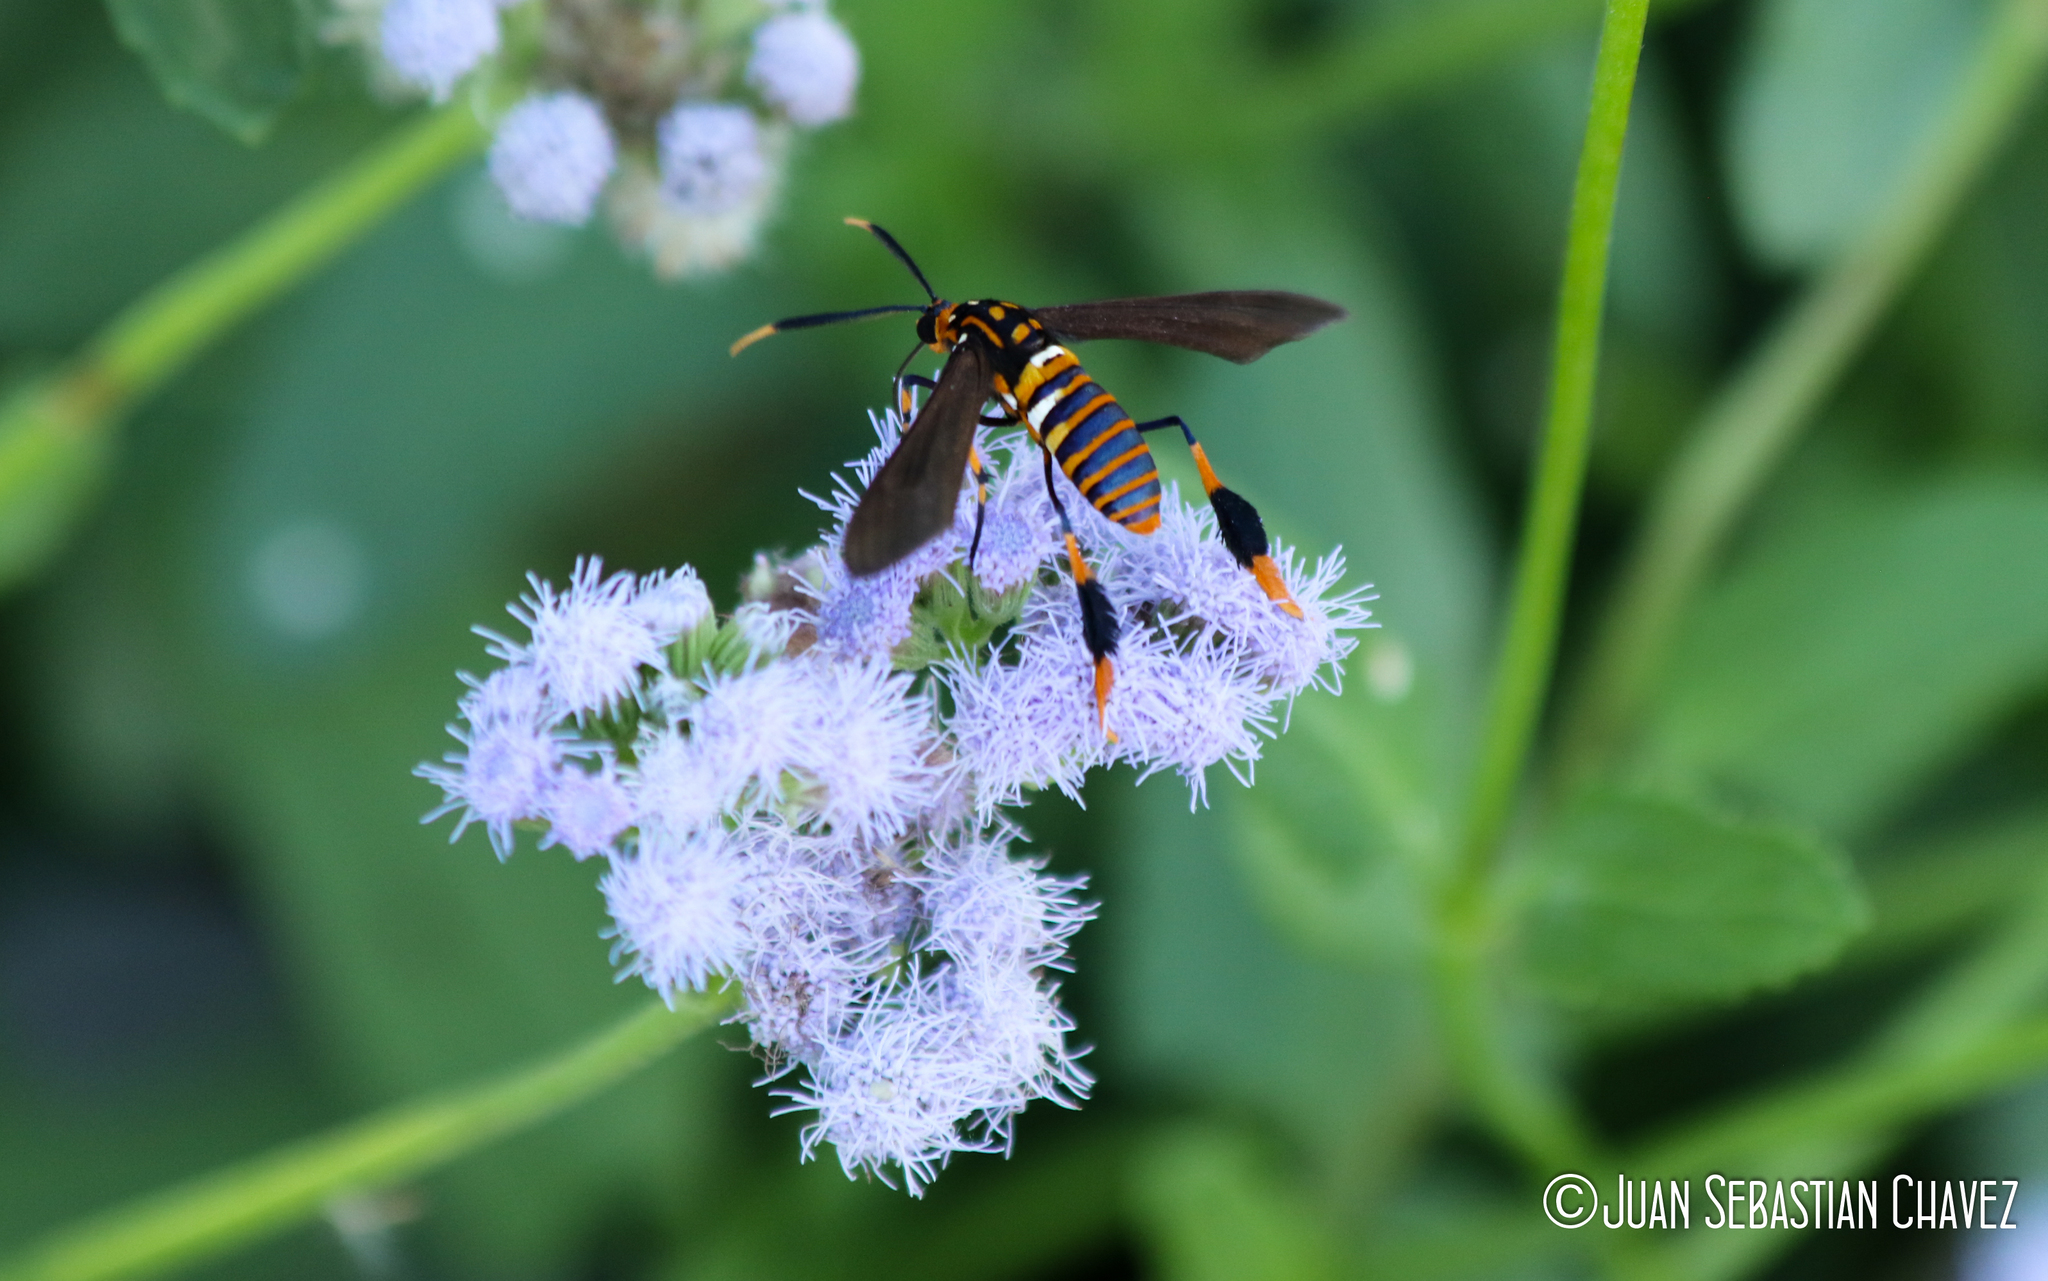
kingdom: Animalia
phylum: Arthropoda
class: Insecta
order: Lepidoptera
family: Erebidae
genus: Horama
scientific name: Horama panthalon
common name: Texas wasp moth
